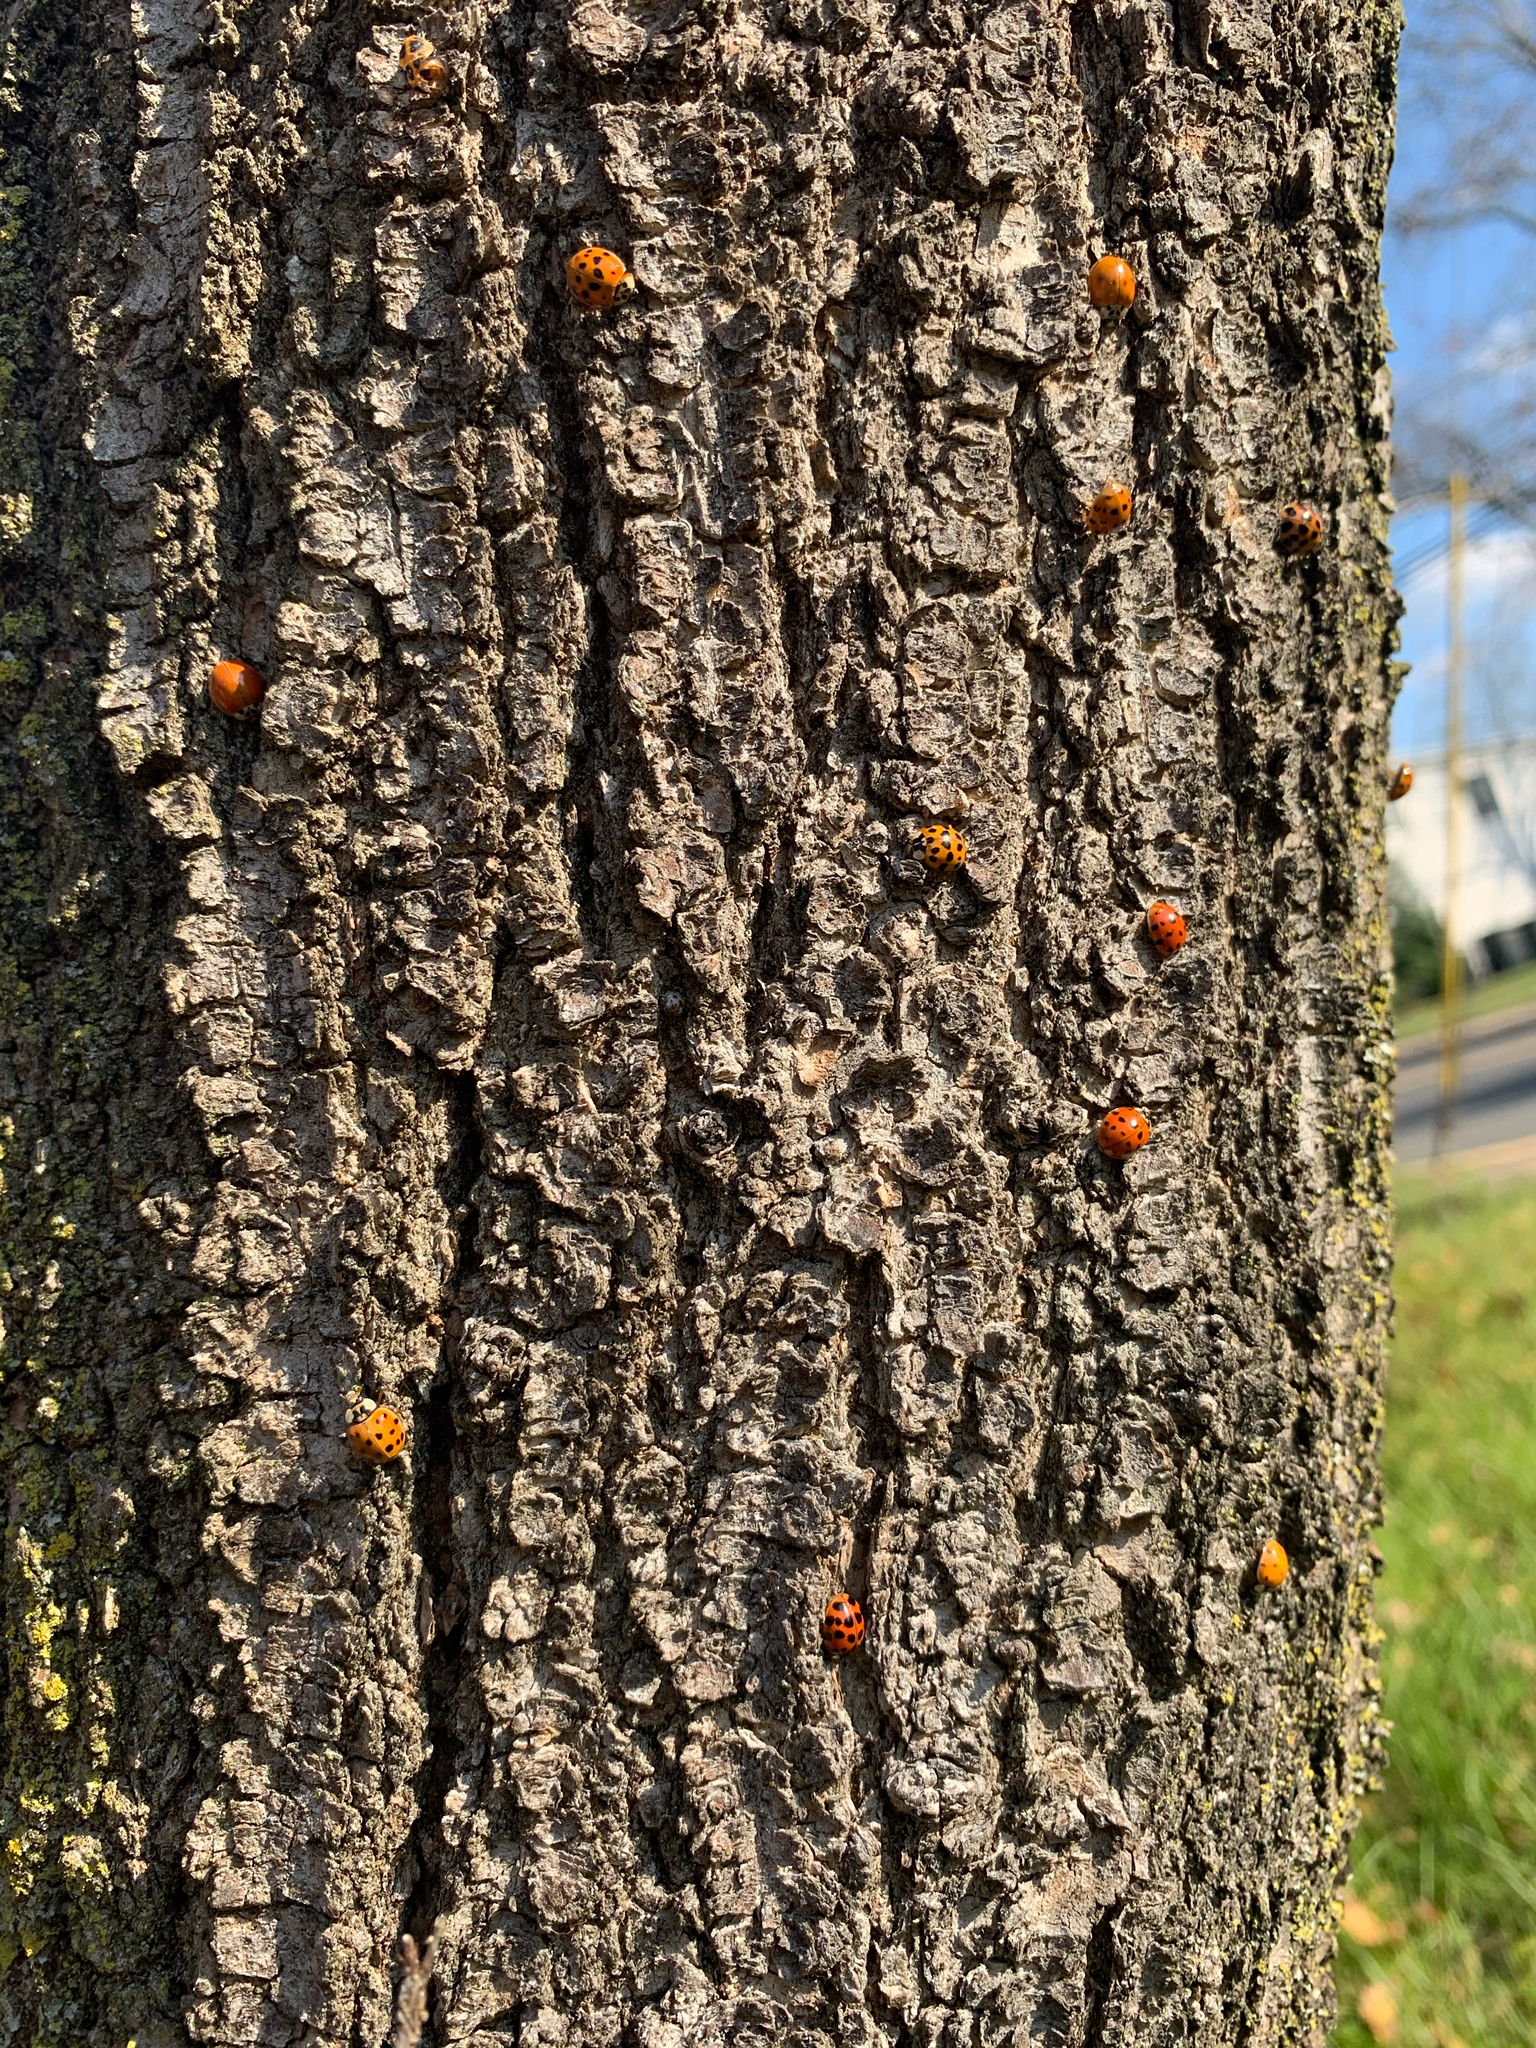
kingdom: Animalia
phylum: Arthropoda
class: Insecta
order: Coleoptera
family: Coccinellidae
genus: Harmonia
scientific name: Harmonia axyridis
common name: Harlequin ladybird
